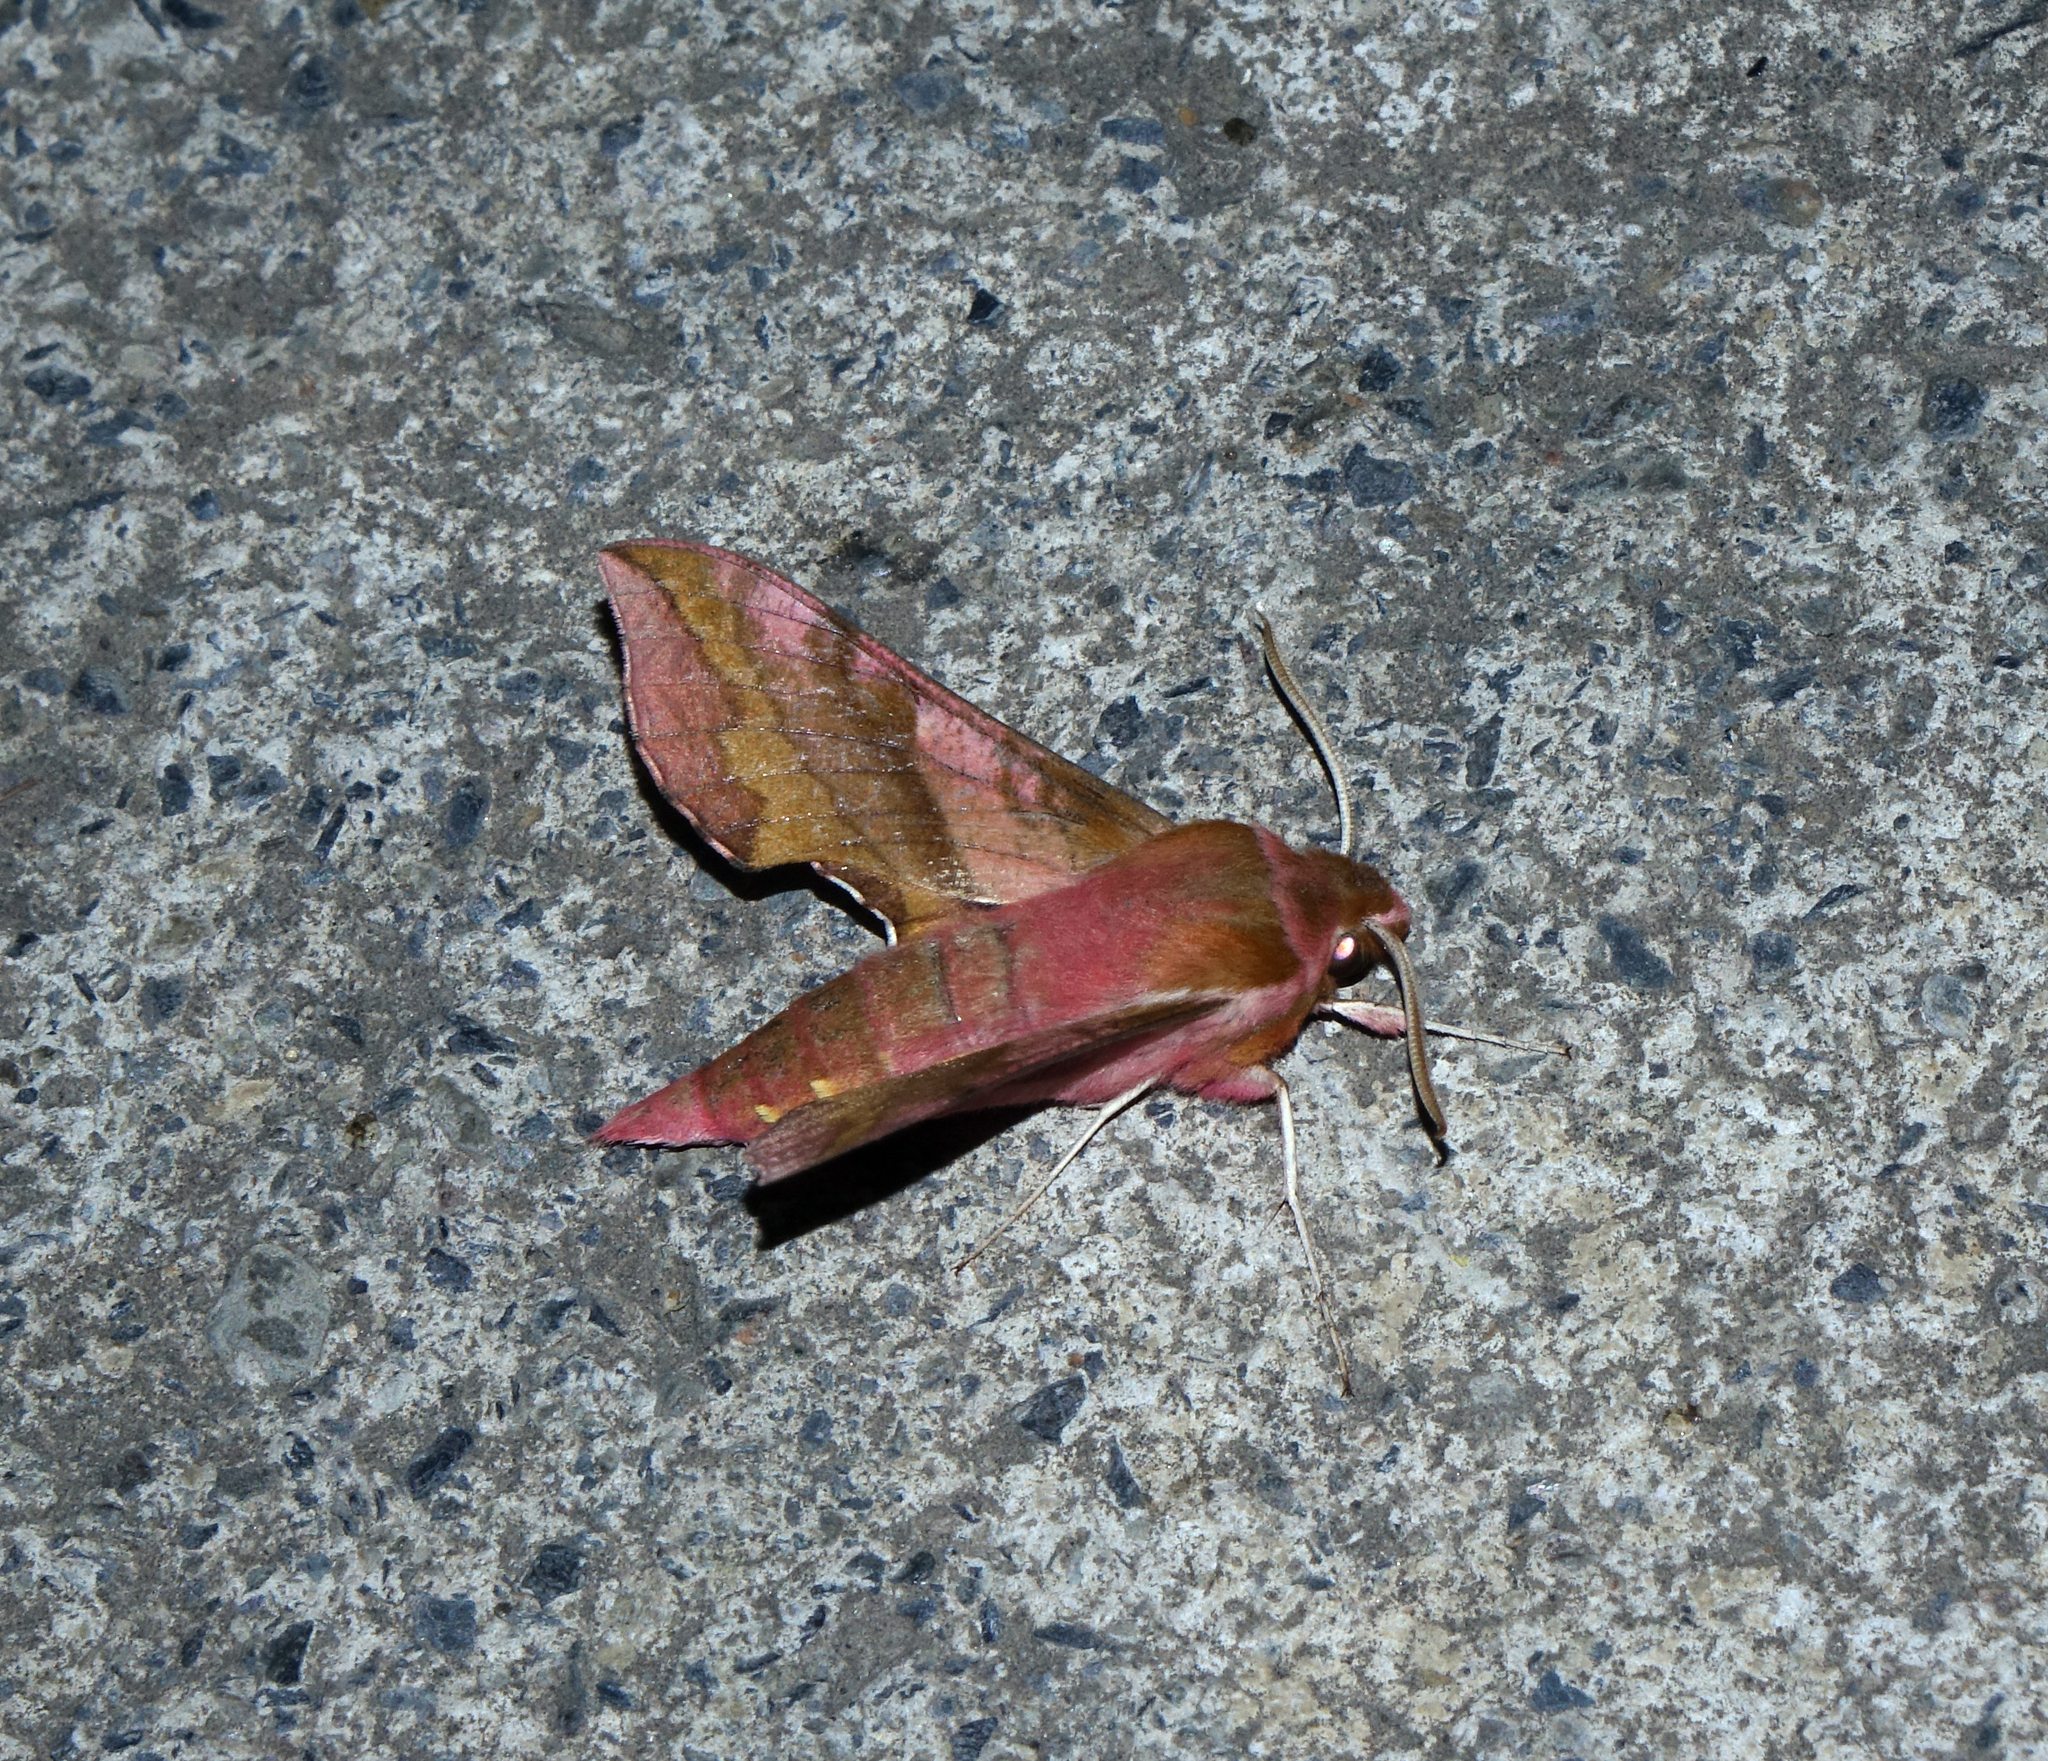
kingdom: Animalia
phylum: Arthropoda
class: Insecta
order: Lepidoptera
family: Sphingidae
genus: Deilephila
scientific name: Deilephila porcellus
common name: Small elephant hawk-moth
